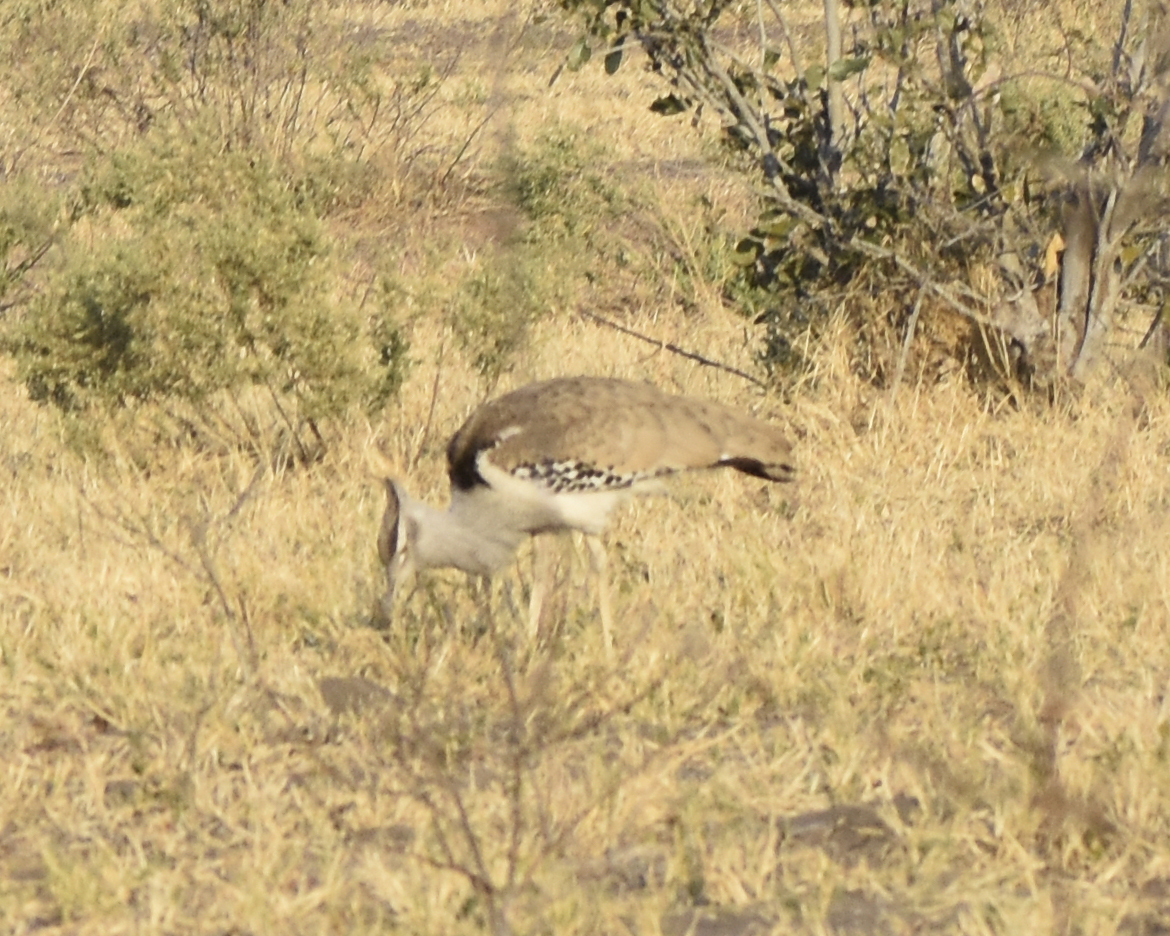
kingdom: Animalia
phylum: Chordata
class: Aves
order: Otidiformes
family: Otididae
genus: Ardeotis
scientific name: Ardeotis kori
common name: Kori bustard
